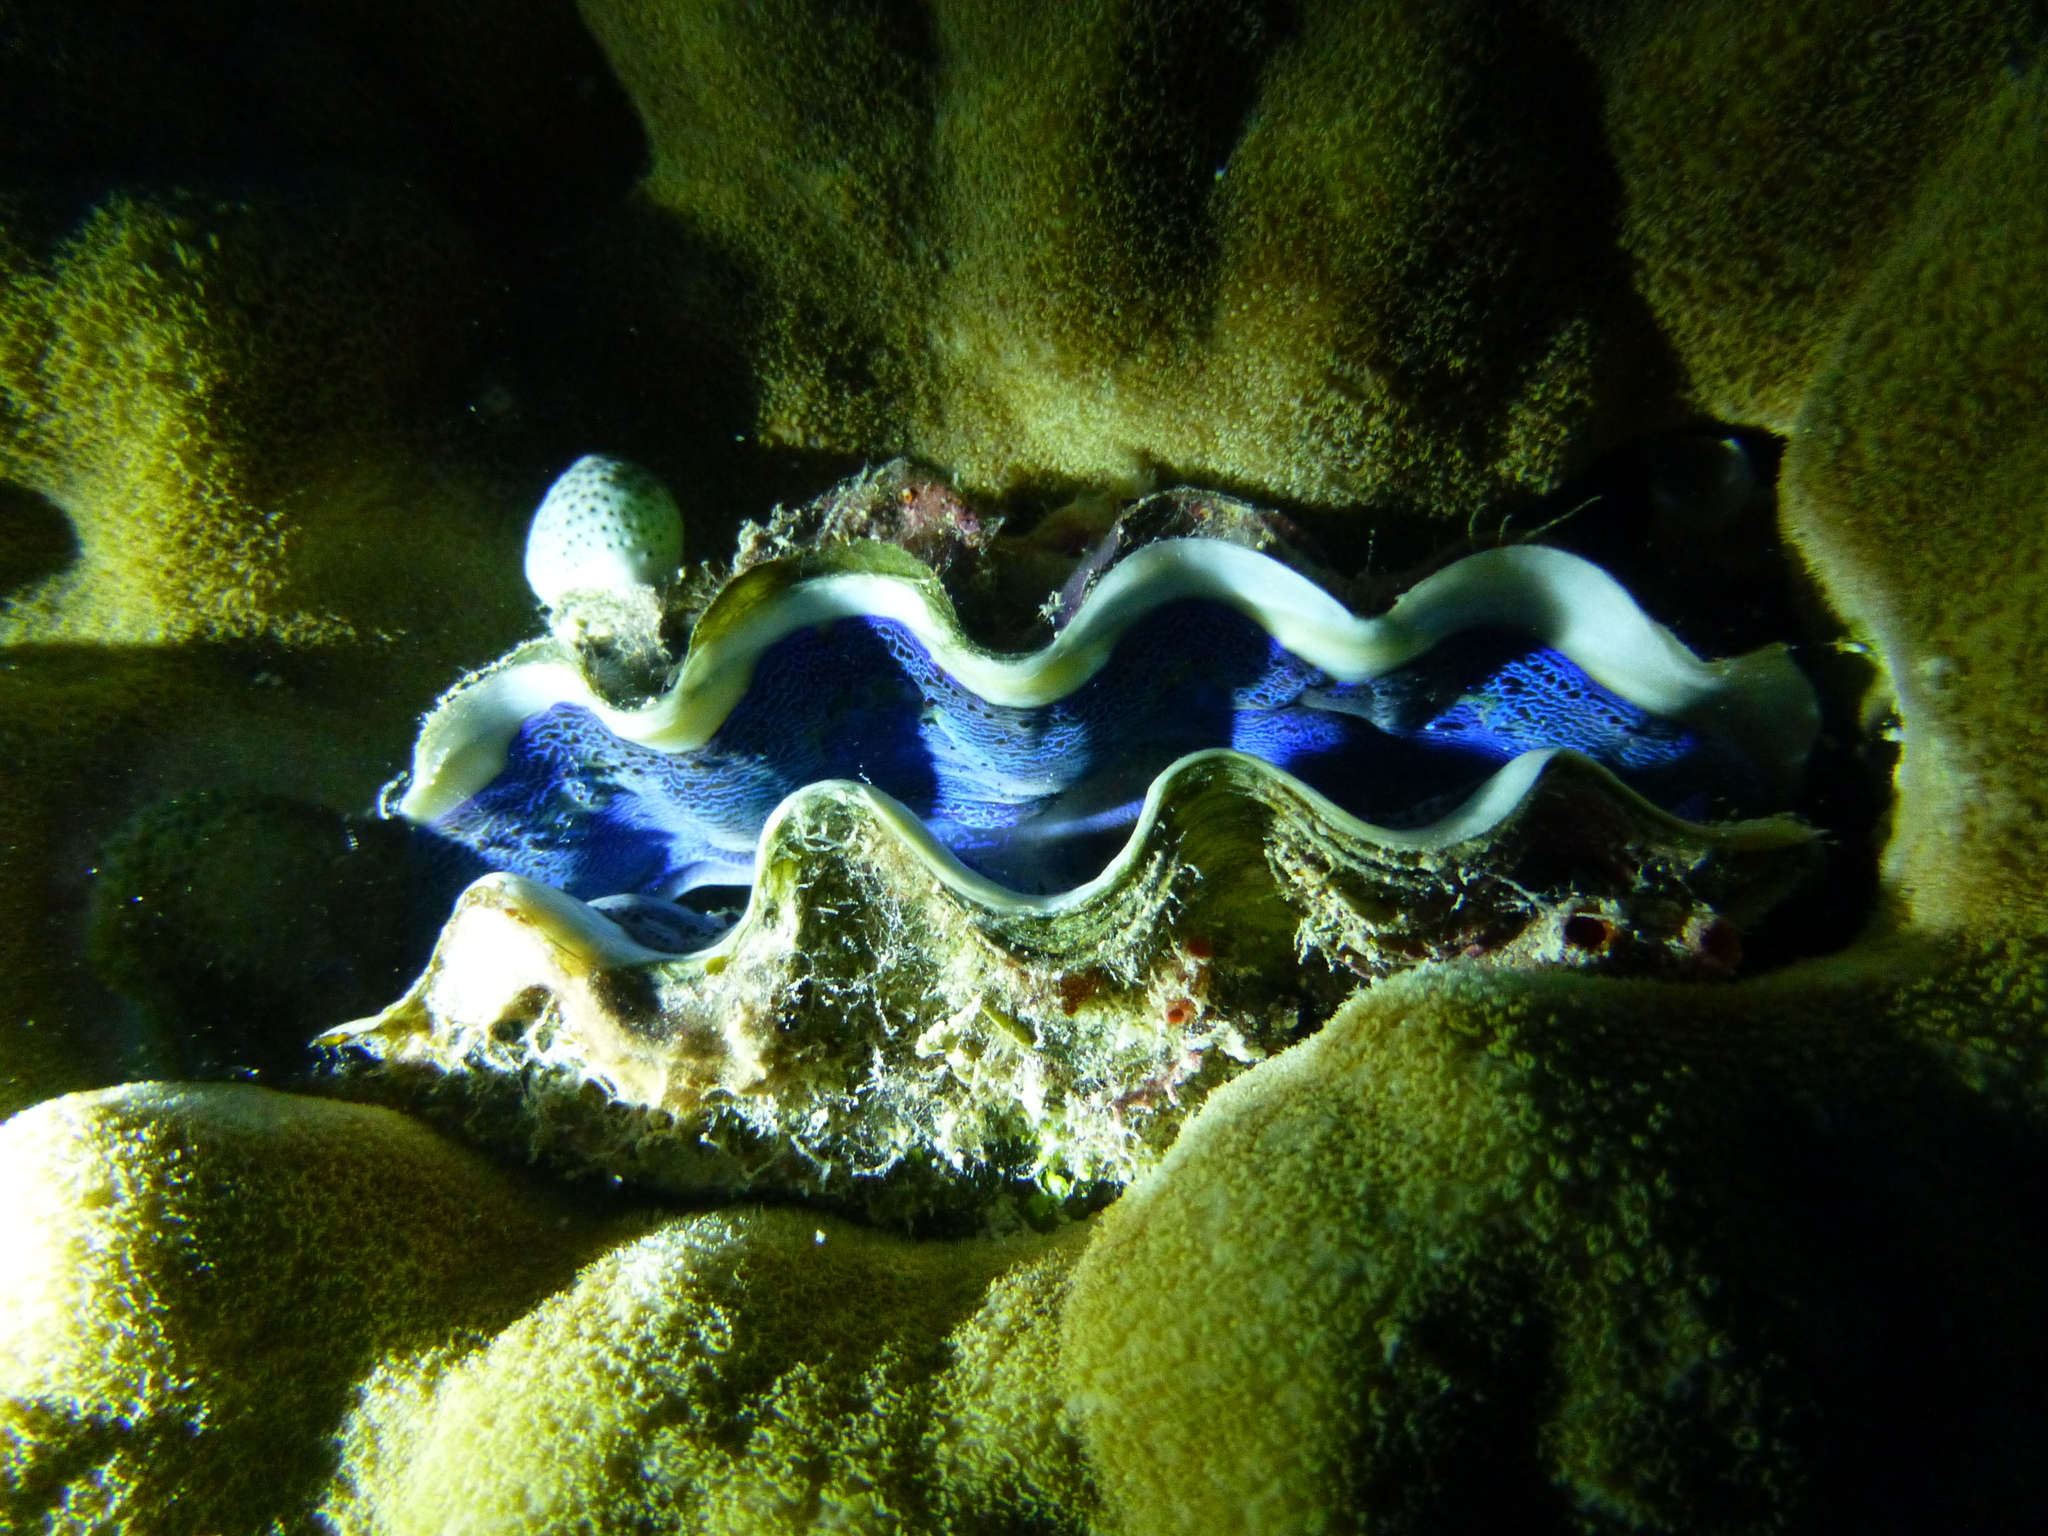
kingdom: Animalia
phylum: Mollusca
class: Bivalvia
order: Cardiida
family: Cardiidae
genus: Tridacna
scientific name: Tridacna crocea
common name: Boring clam
